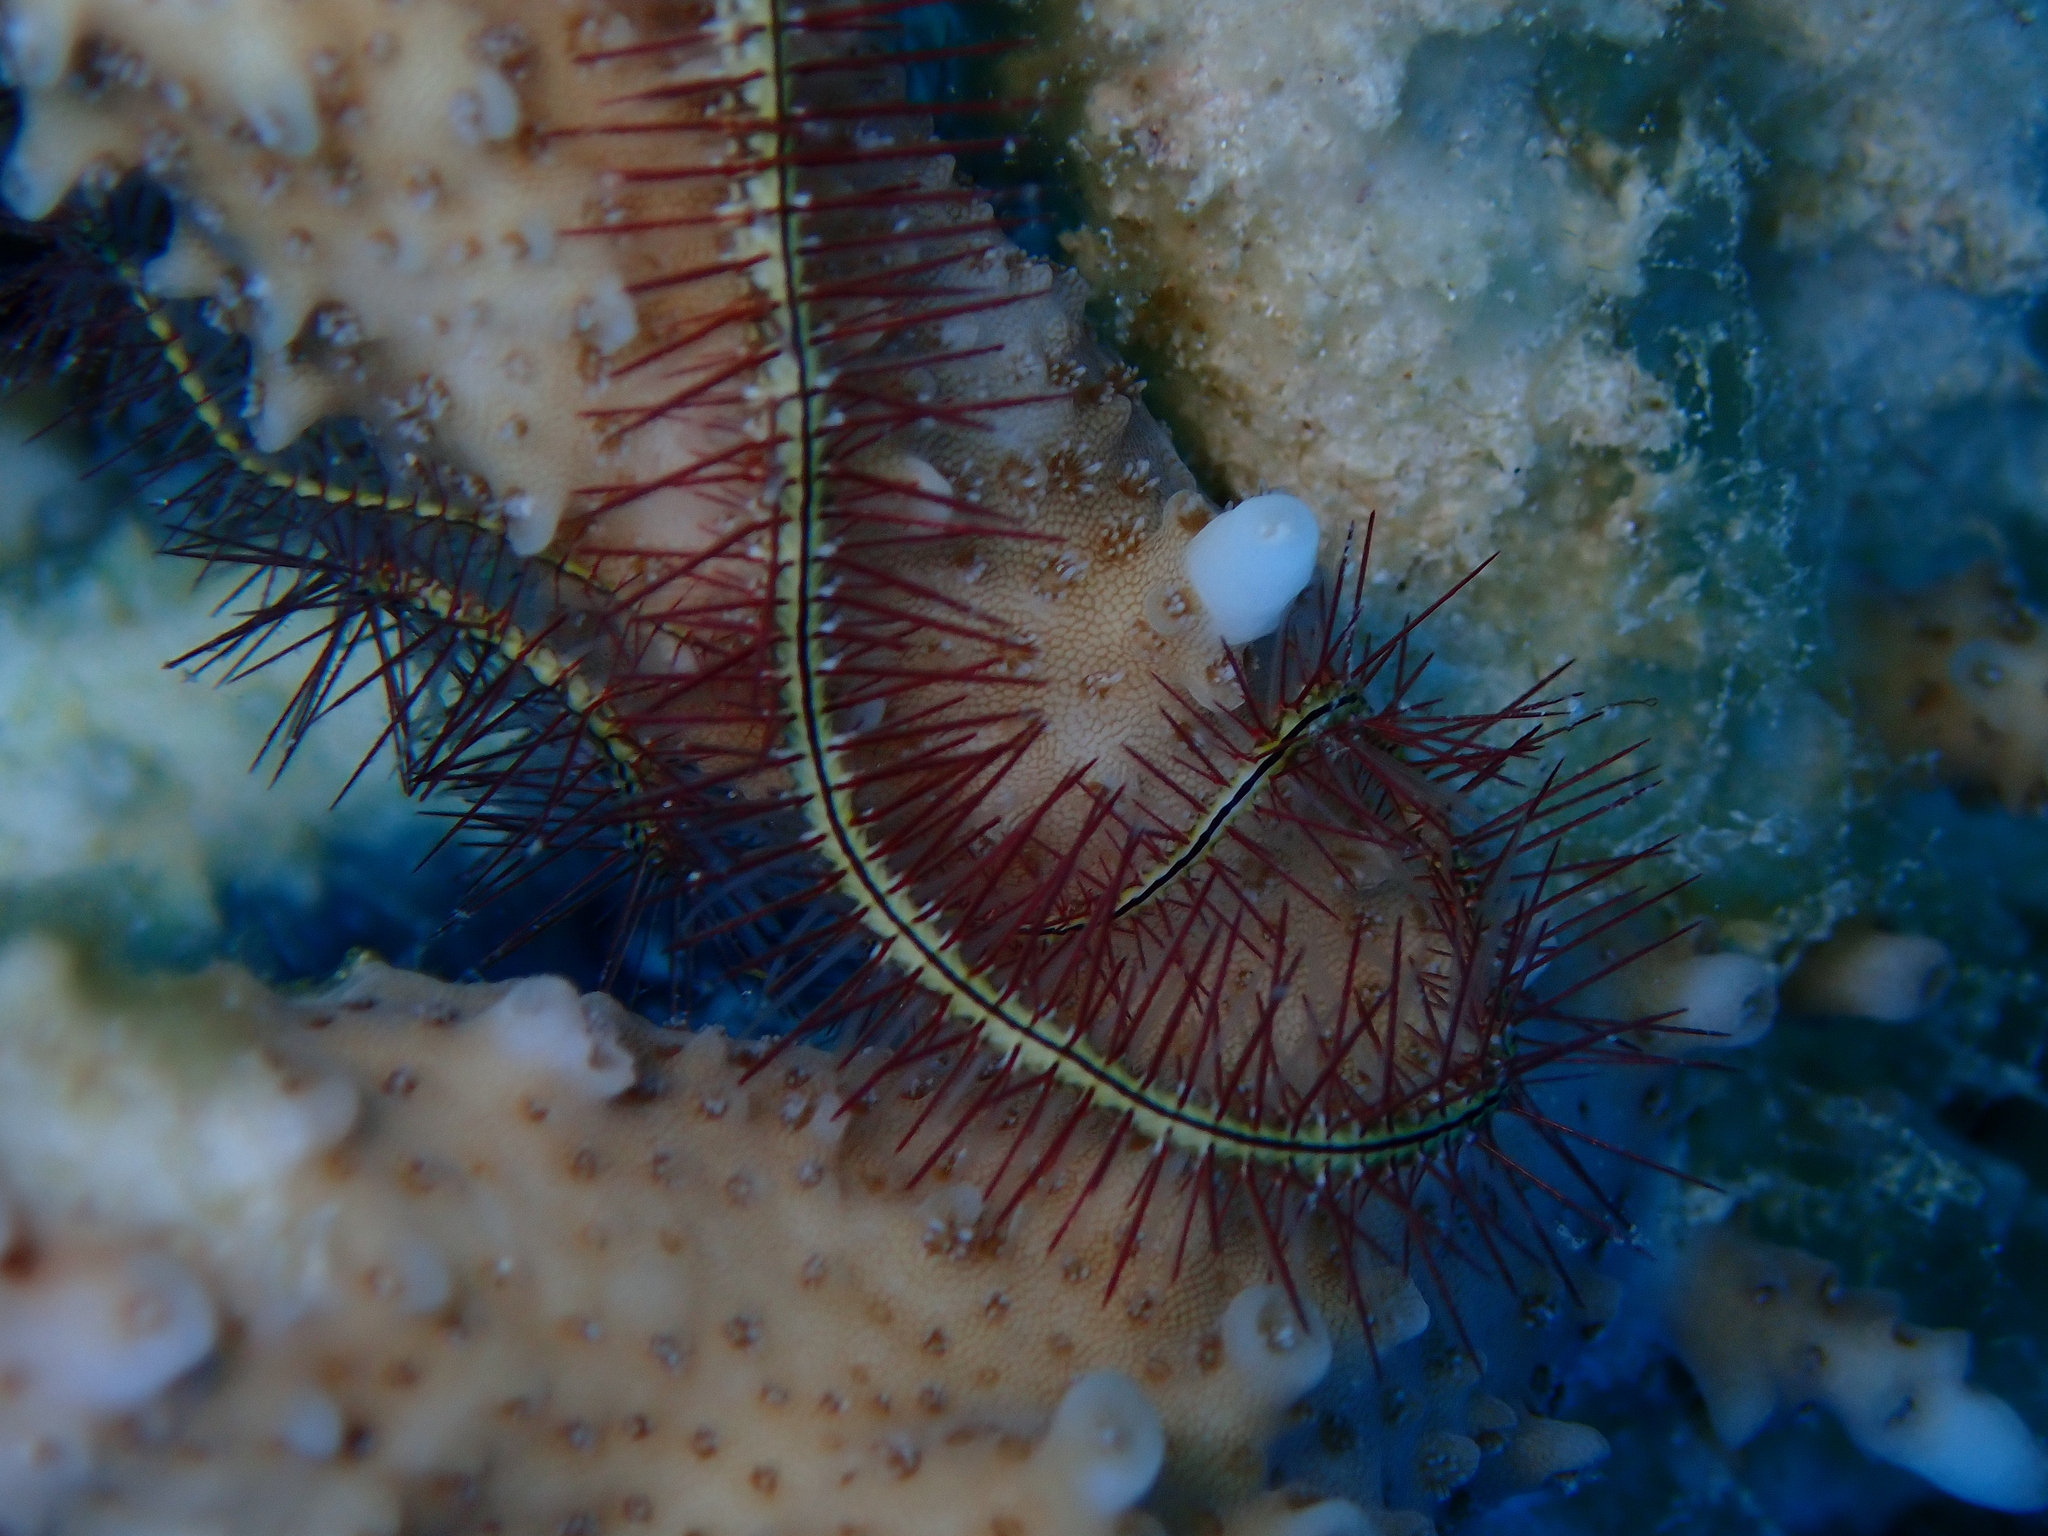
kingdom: Animalia
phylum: Echinodermata
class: Ophiuroidea
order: Amphilepidida
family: Ophiotrichidae
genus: Ophiothrix
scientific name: Ophiothrix savignyi
